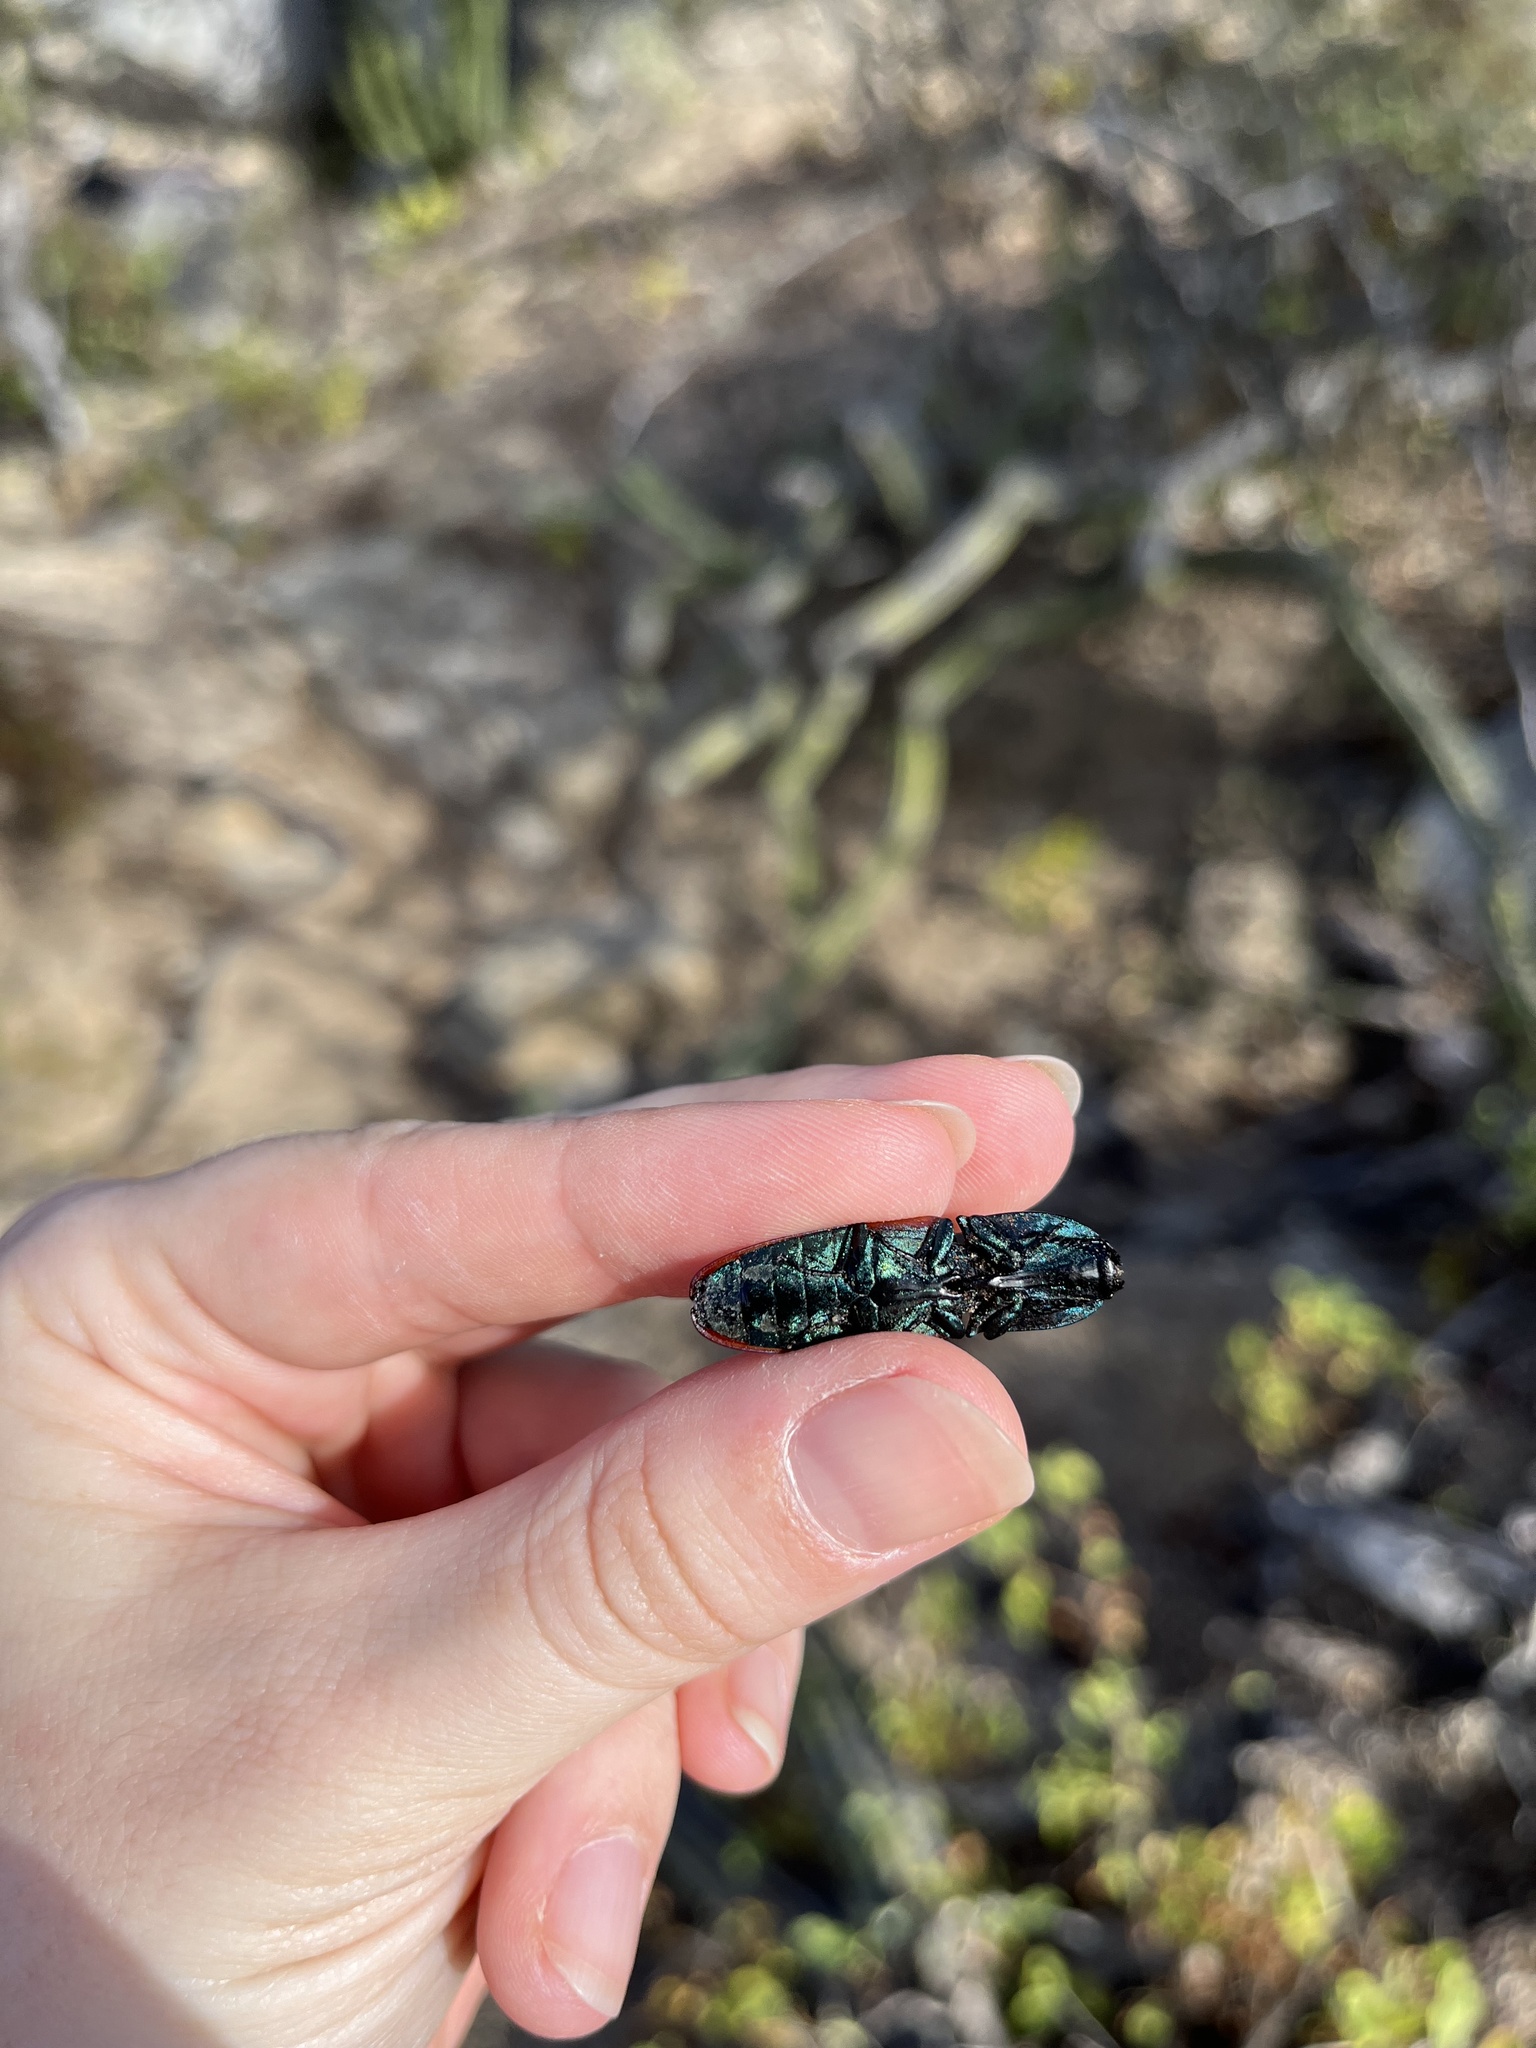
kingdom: Animalia
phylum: Arthropoda
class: Insecta
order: Coleoptera
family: Elateridae
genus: Chalcolepidius
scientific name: Chalcolepidius
